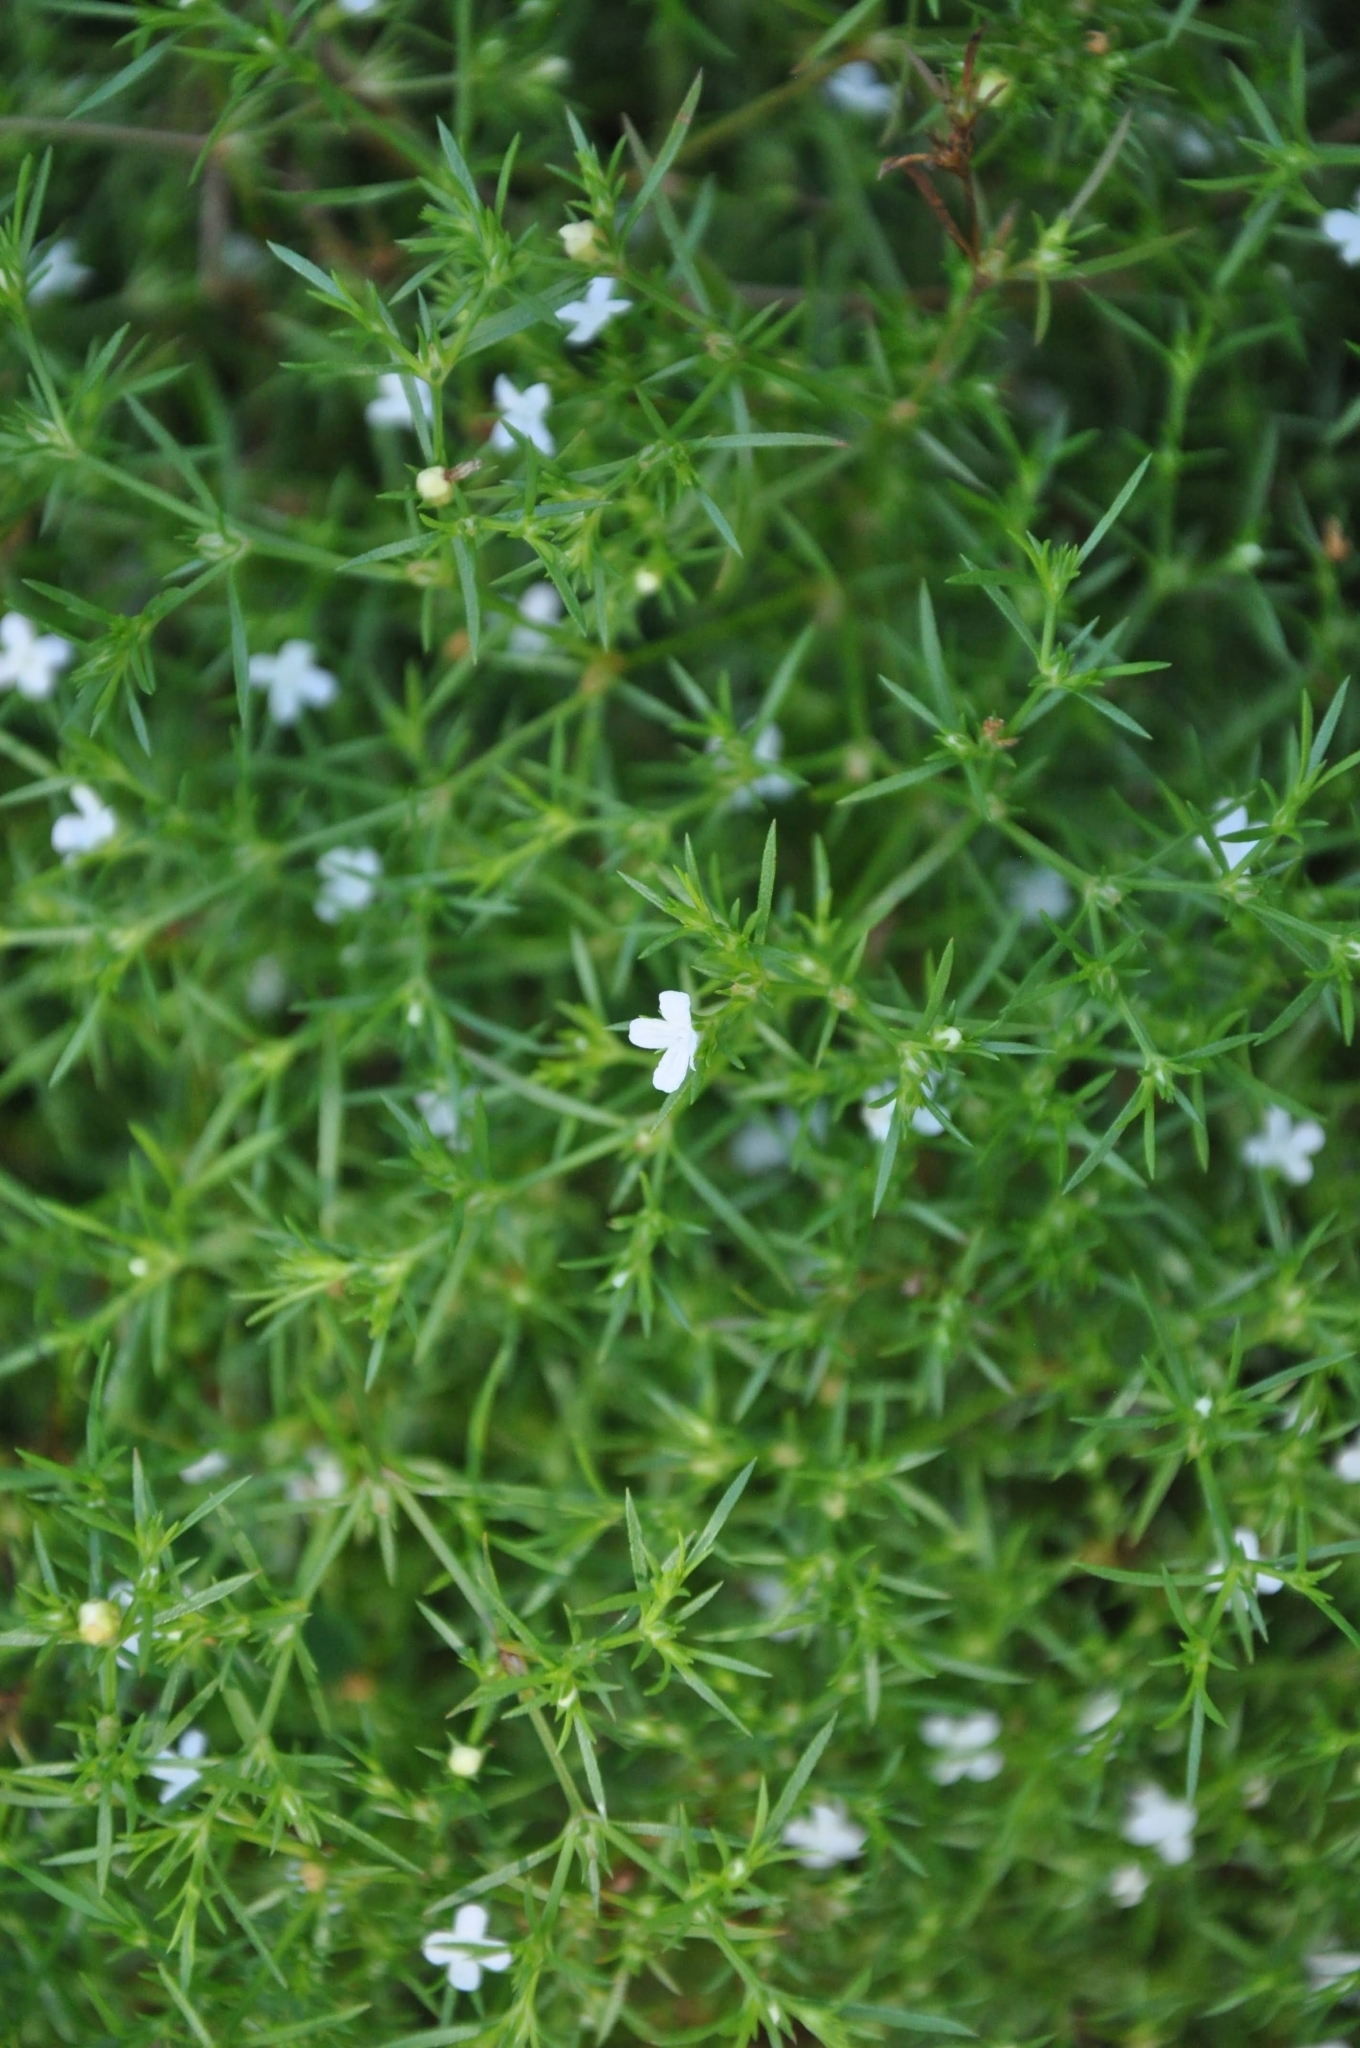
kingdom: Plantae
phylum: Tracheophyta
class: Magnoliopsida
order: Lamiales
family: Tetrachondraceae
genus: Polypremum
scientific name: Polypremum procumbens
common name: Juniper-leaf
